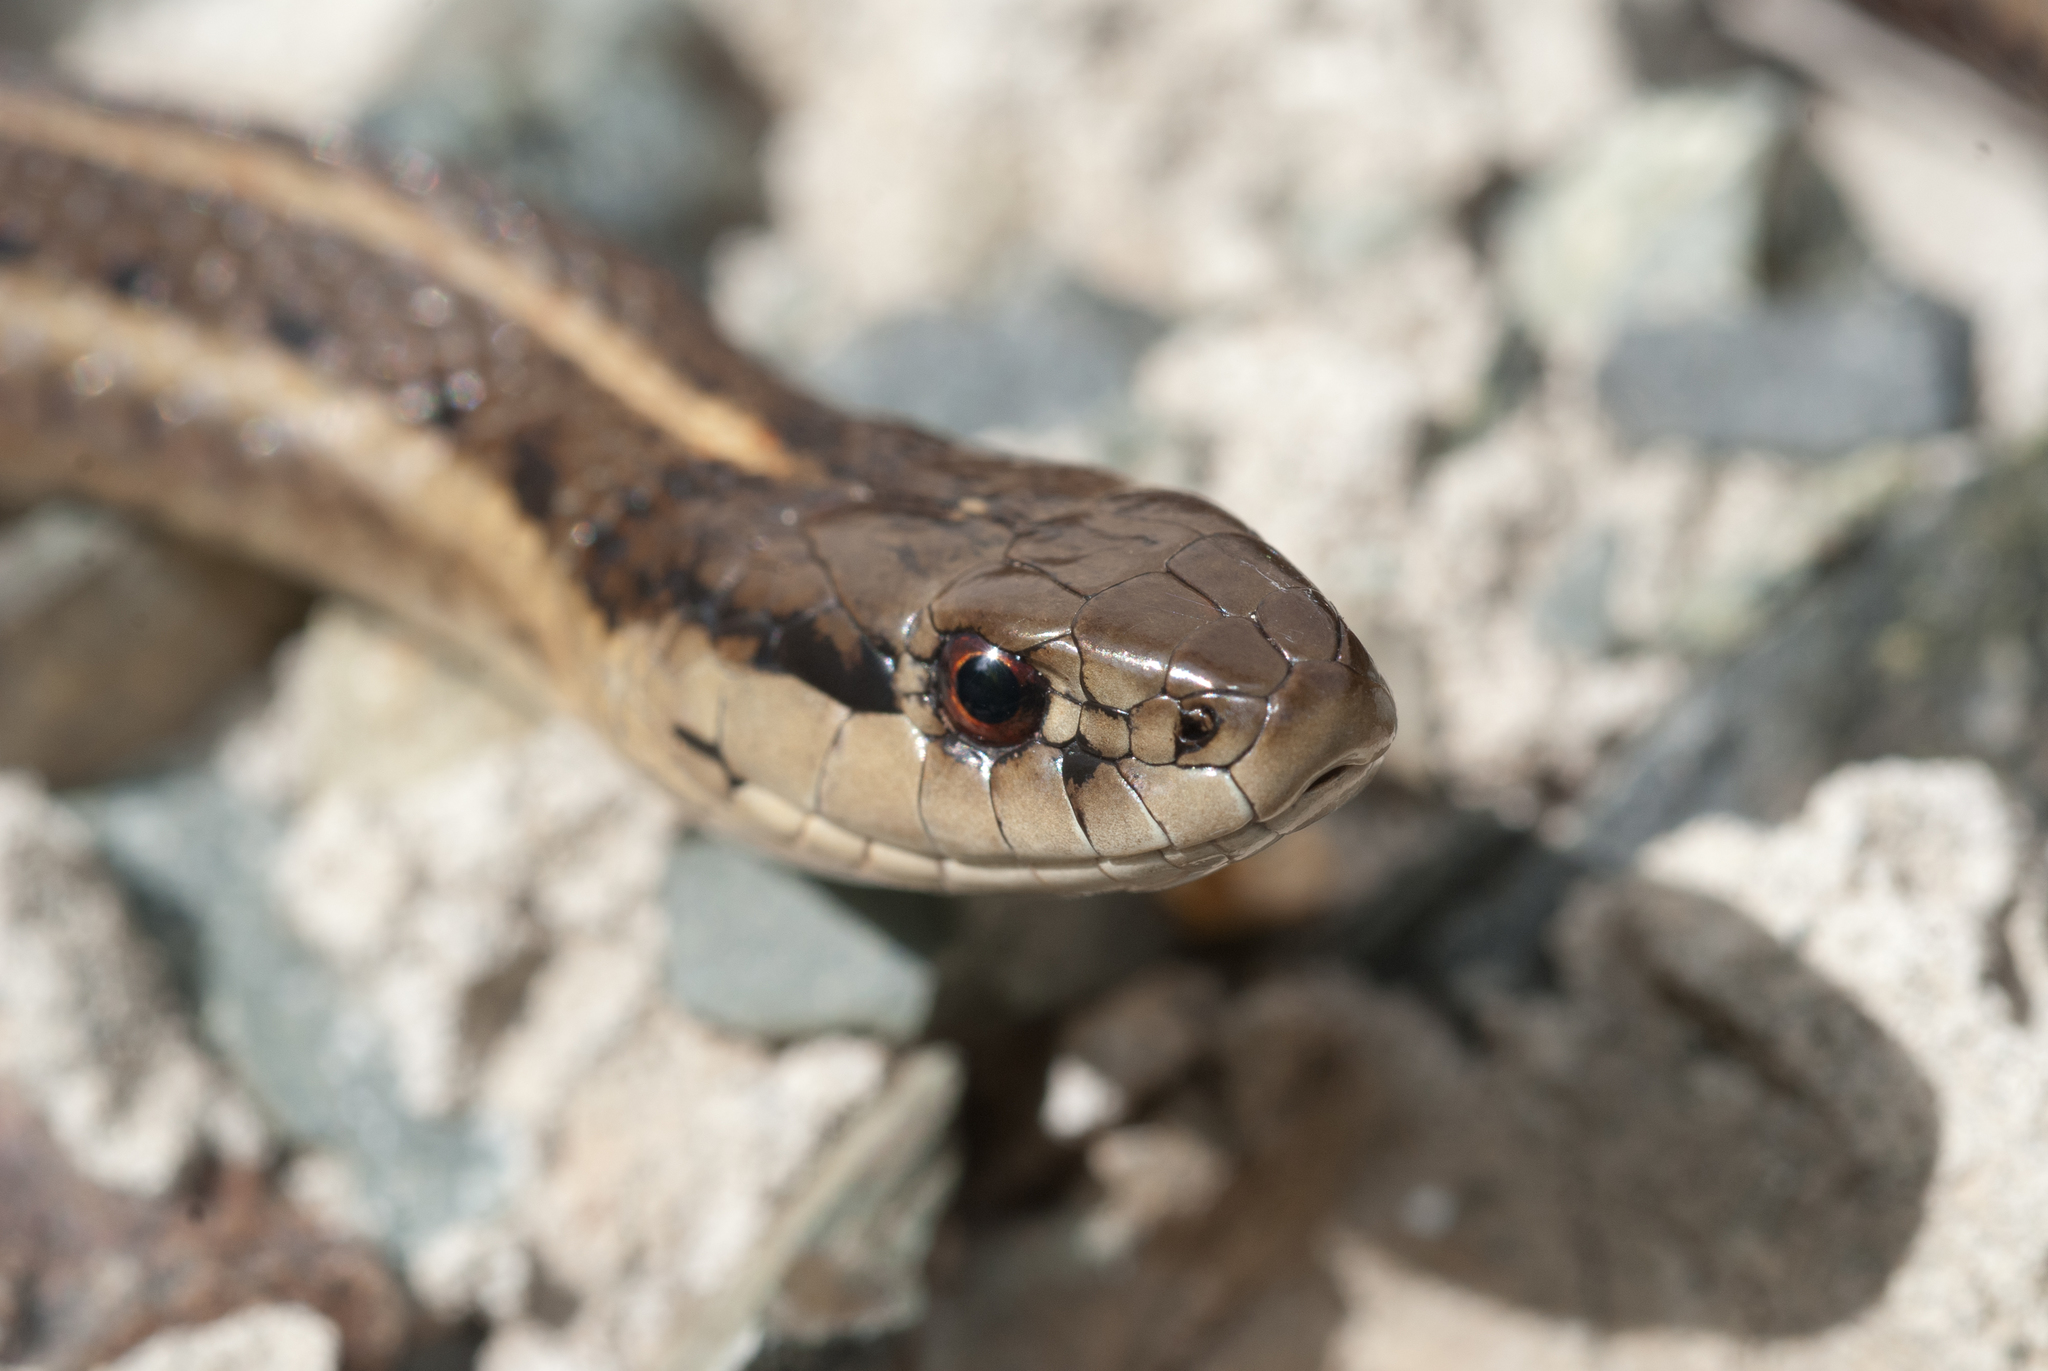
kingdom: Animalia
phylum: Chordata
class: Squamata
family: Colubridae
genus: Thamnophis
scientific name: Thamnophis ordinoides
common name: Northwestern garter snake
